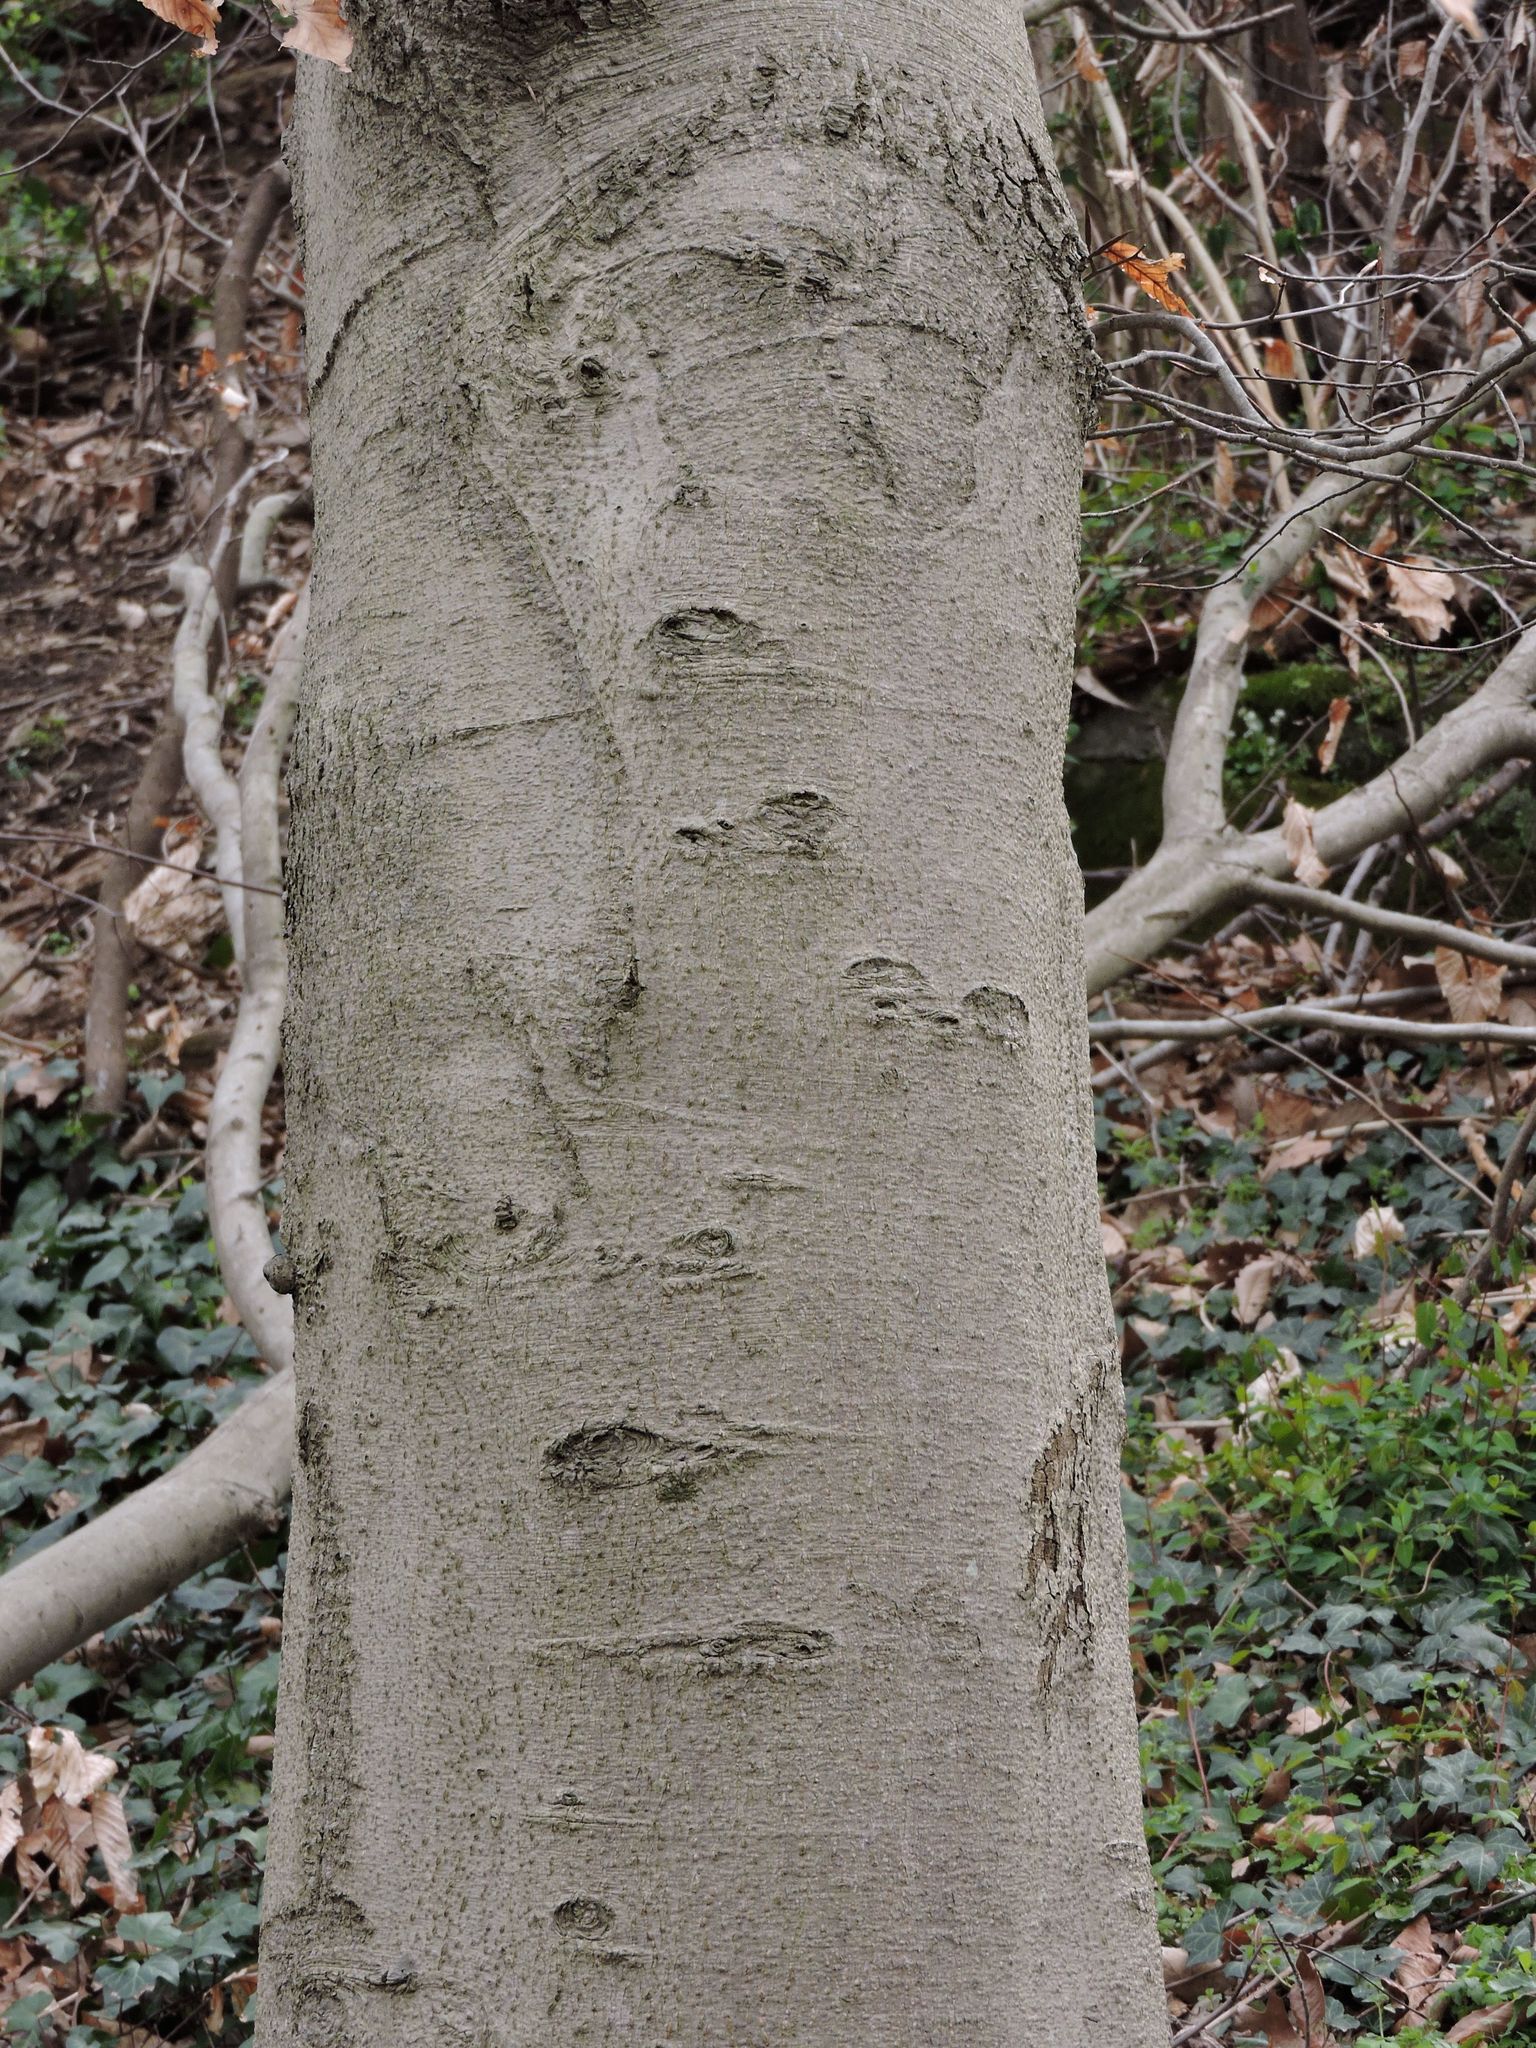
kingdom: Plantae
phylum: Tracheophyta
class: Magnoliopsida
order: Fagales
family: Fagaceae
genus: Fagus
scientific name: Fagus grandifolia
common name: American beech
